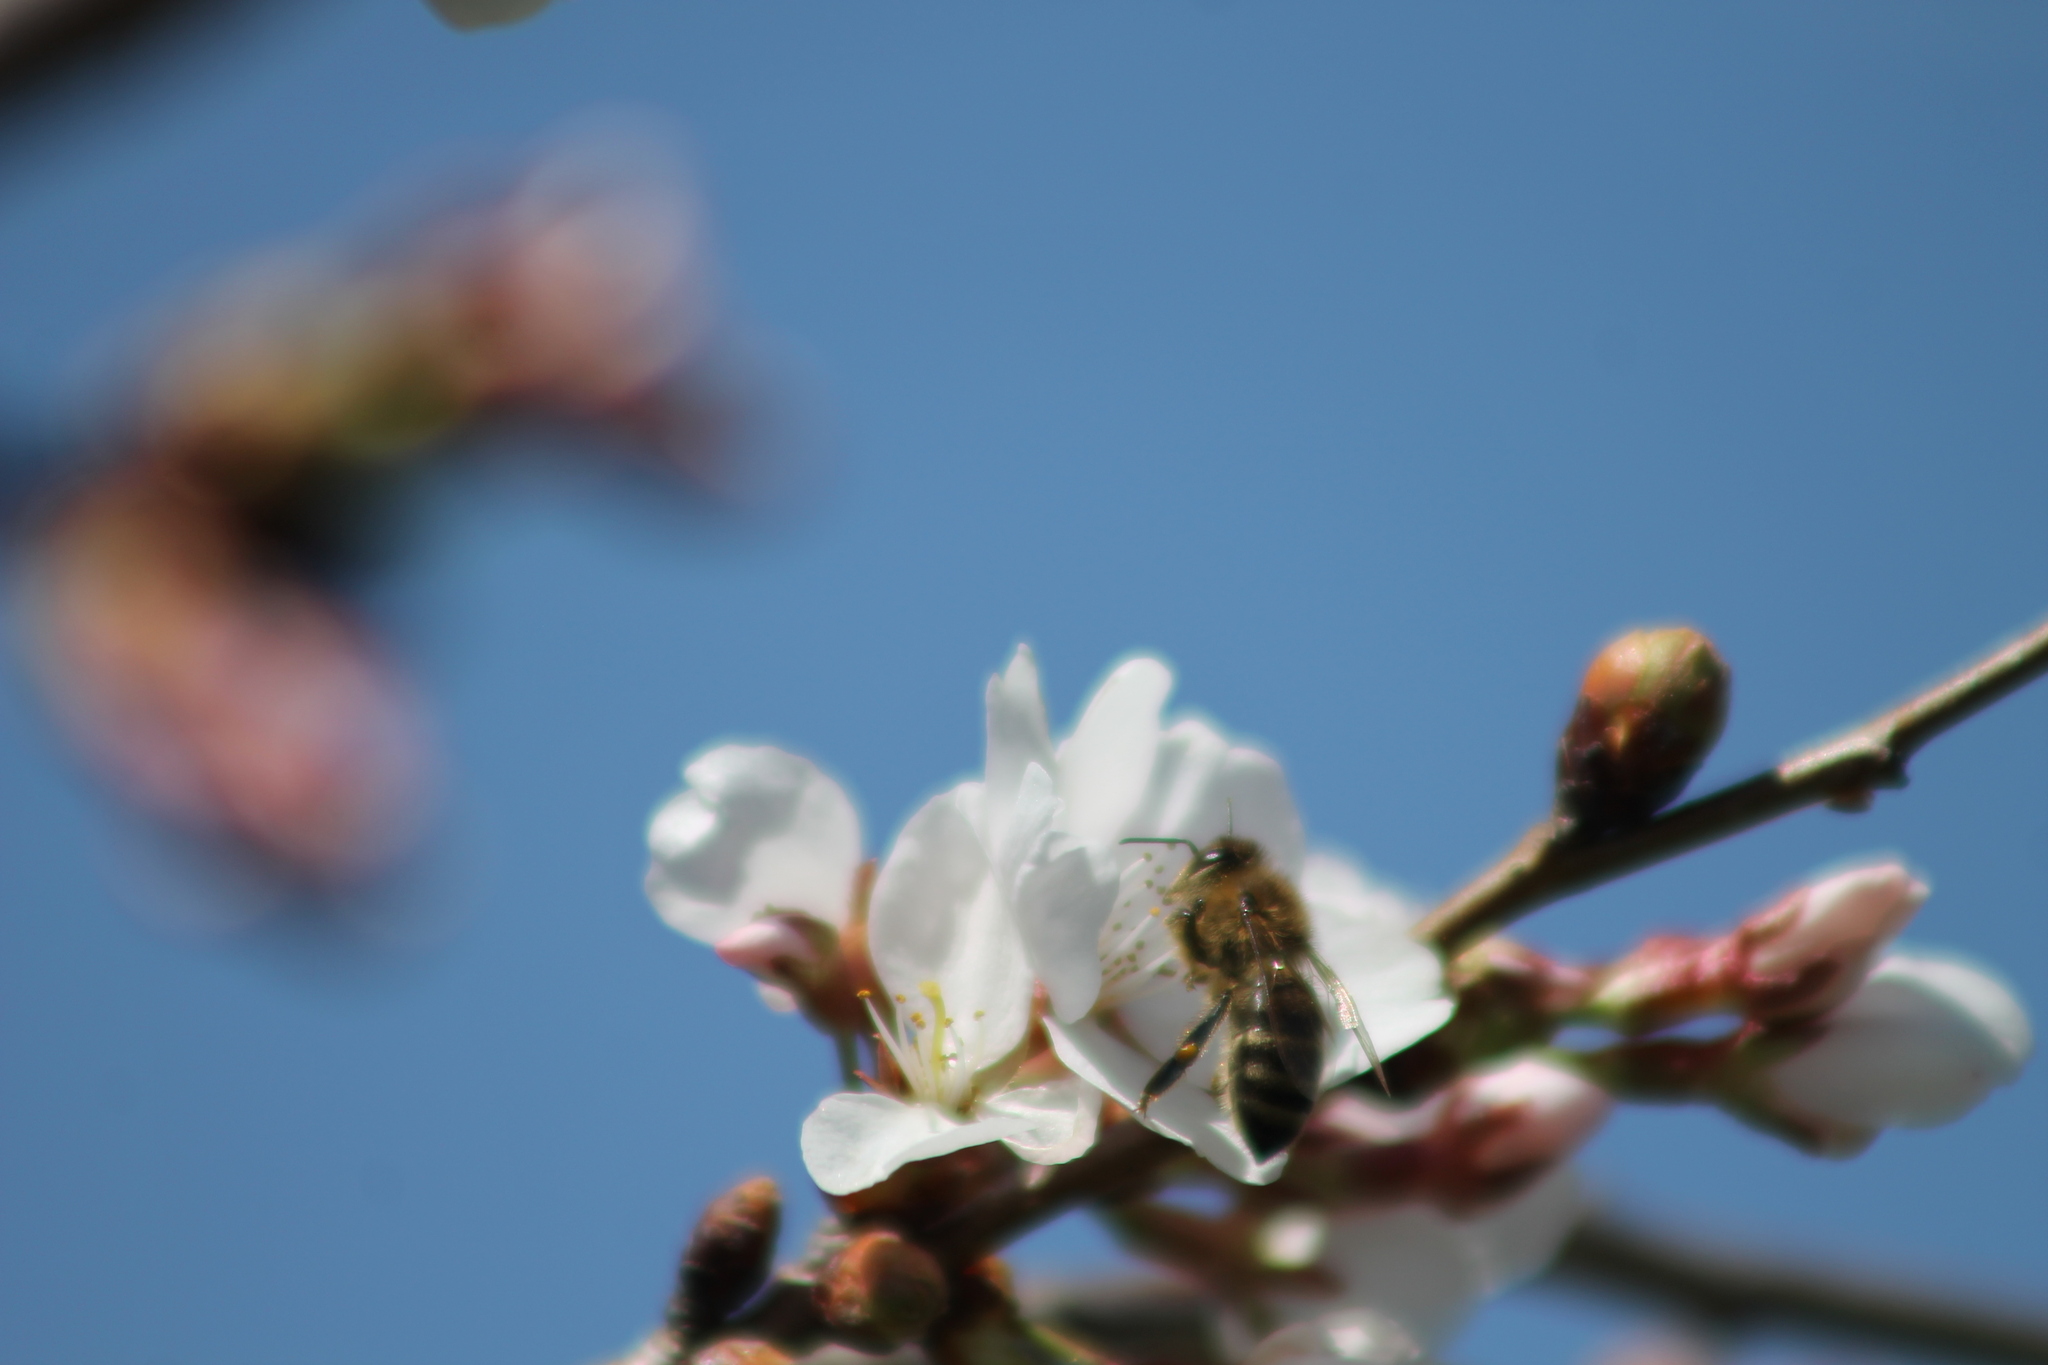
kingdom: Animalia
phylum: Arthropoda
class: Insecta
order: Hymenoptera
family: Apidae
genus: Apis
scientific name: Apis mellifera
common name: Honey bee
